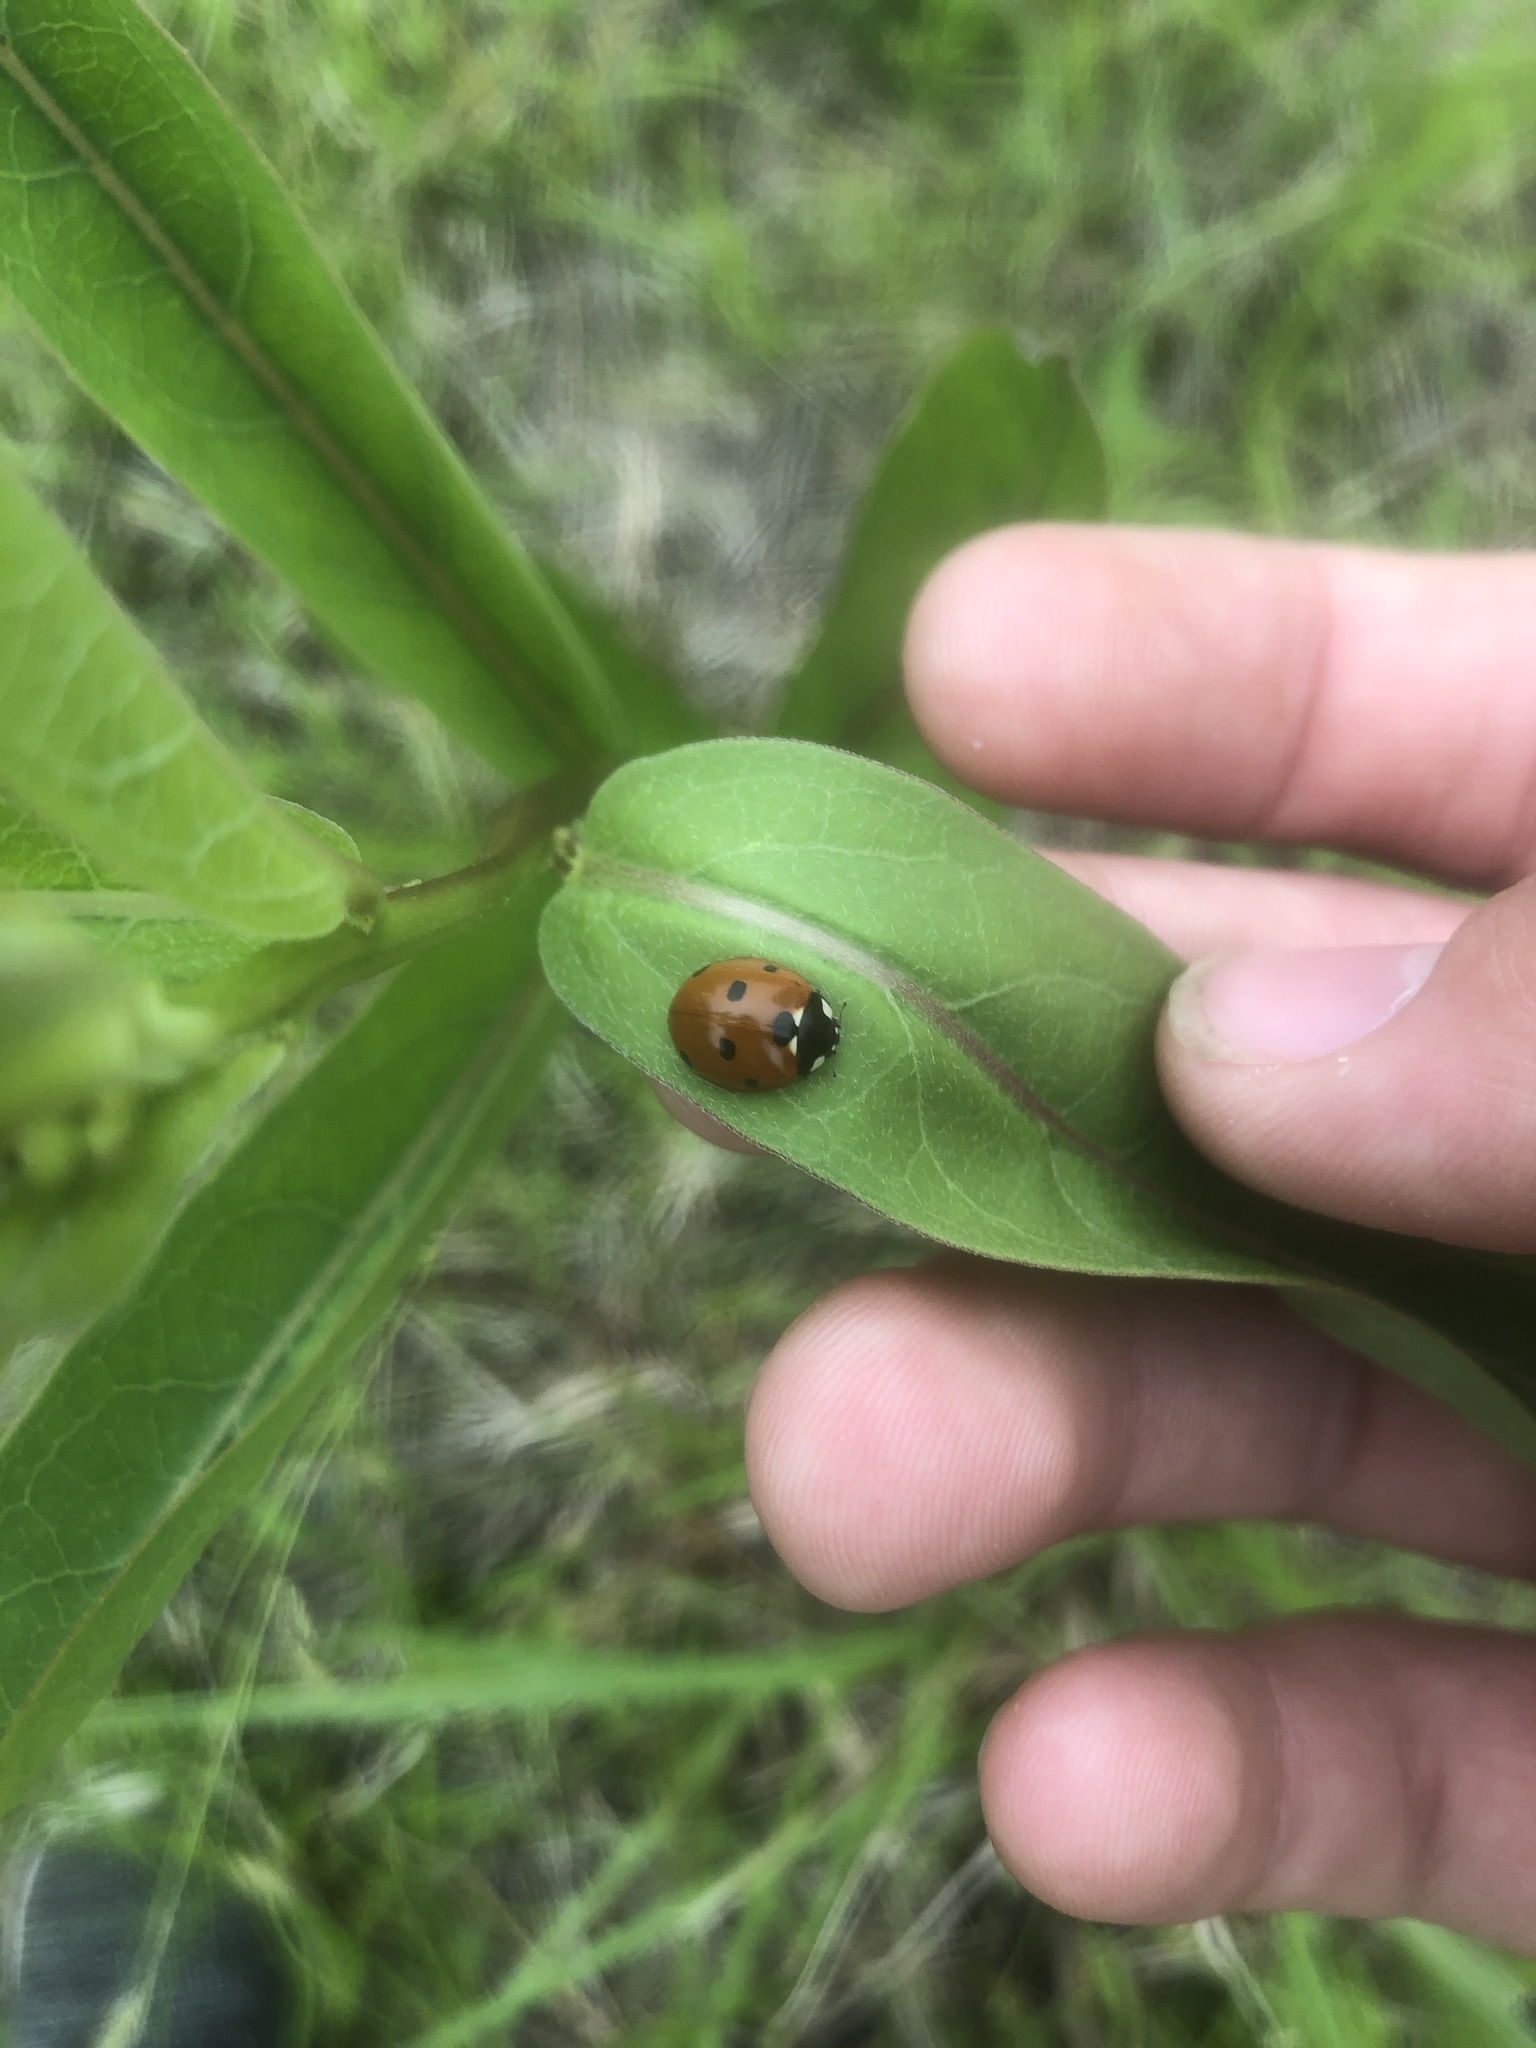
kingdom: Animalia
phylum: Arthropoda
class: Insecta
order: Coleoptera
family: Coccinellidae
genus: Coccinella
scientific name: Coccinella septempunctata
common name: Sevenspotted lady beetle
